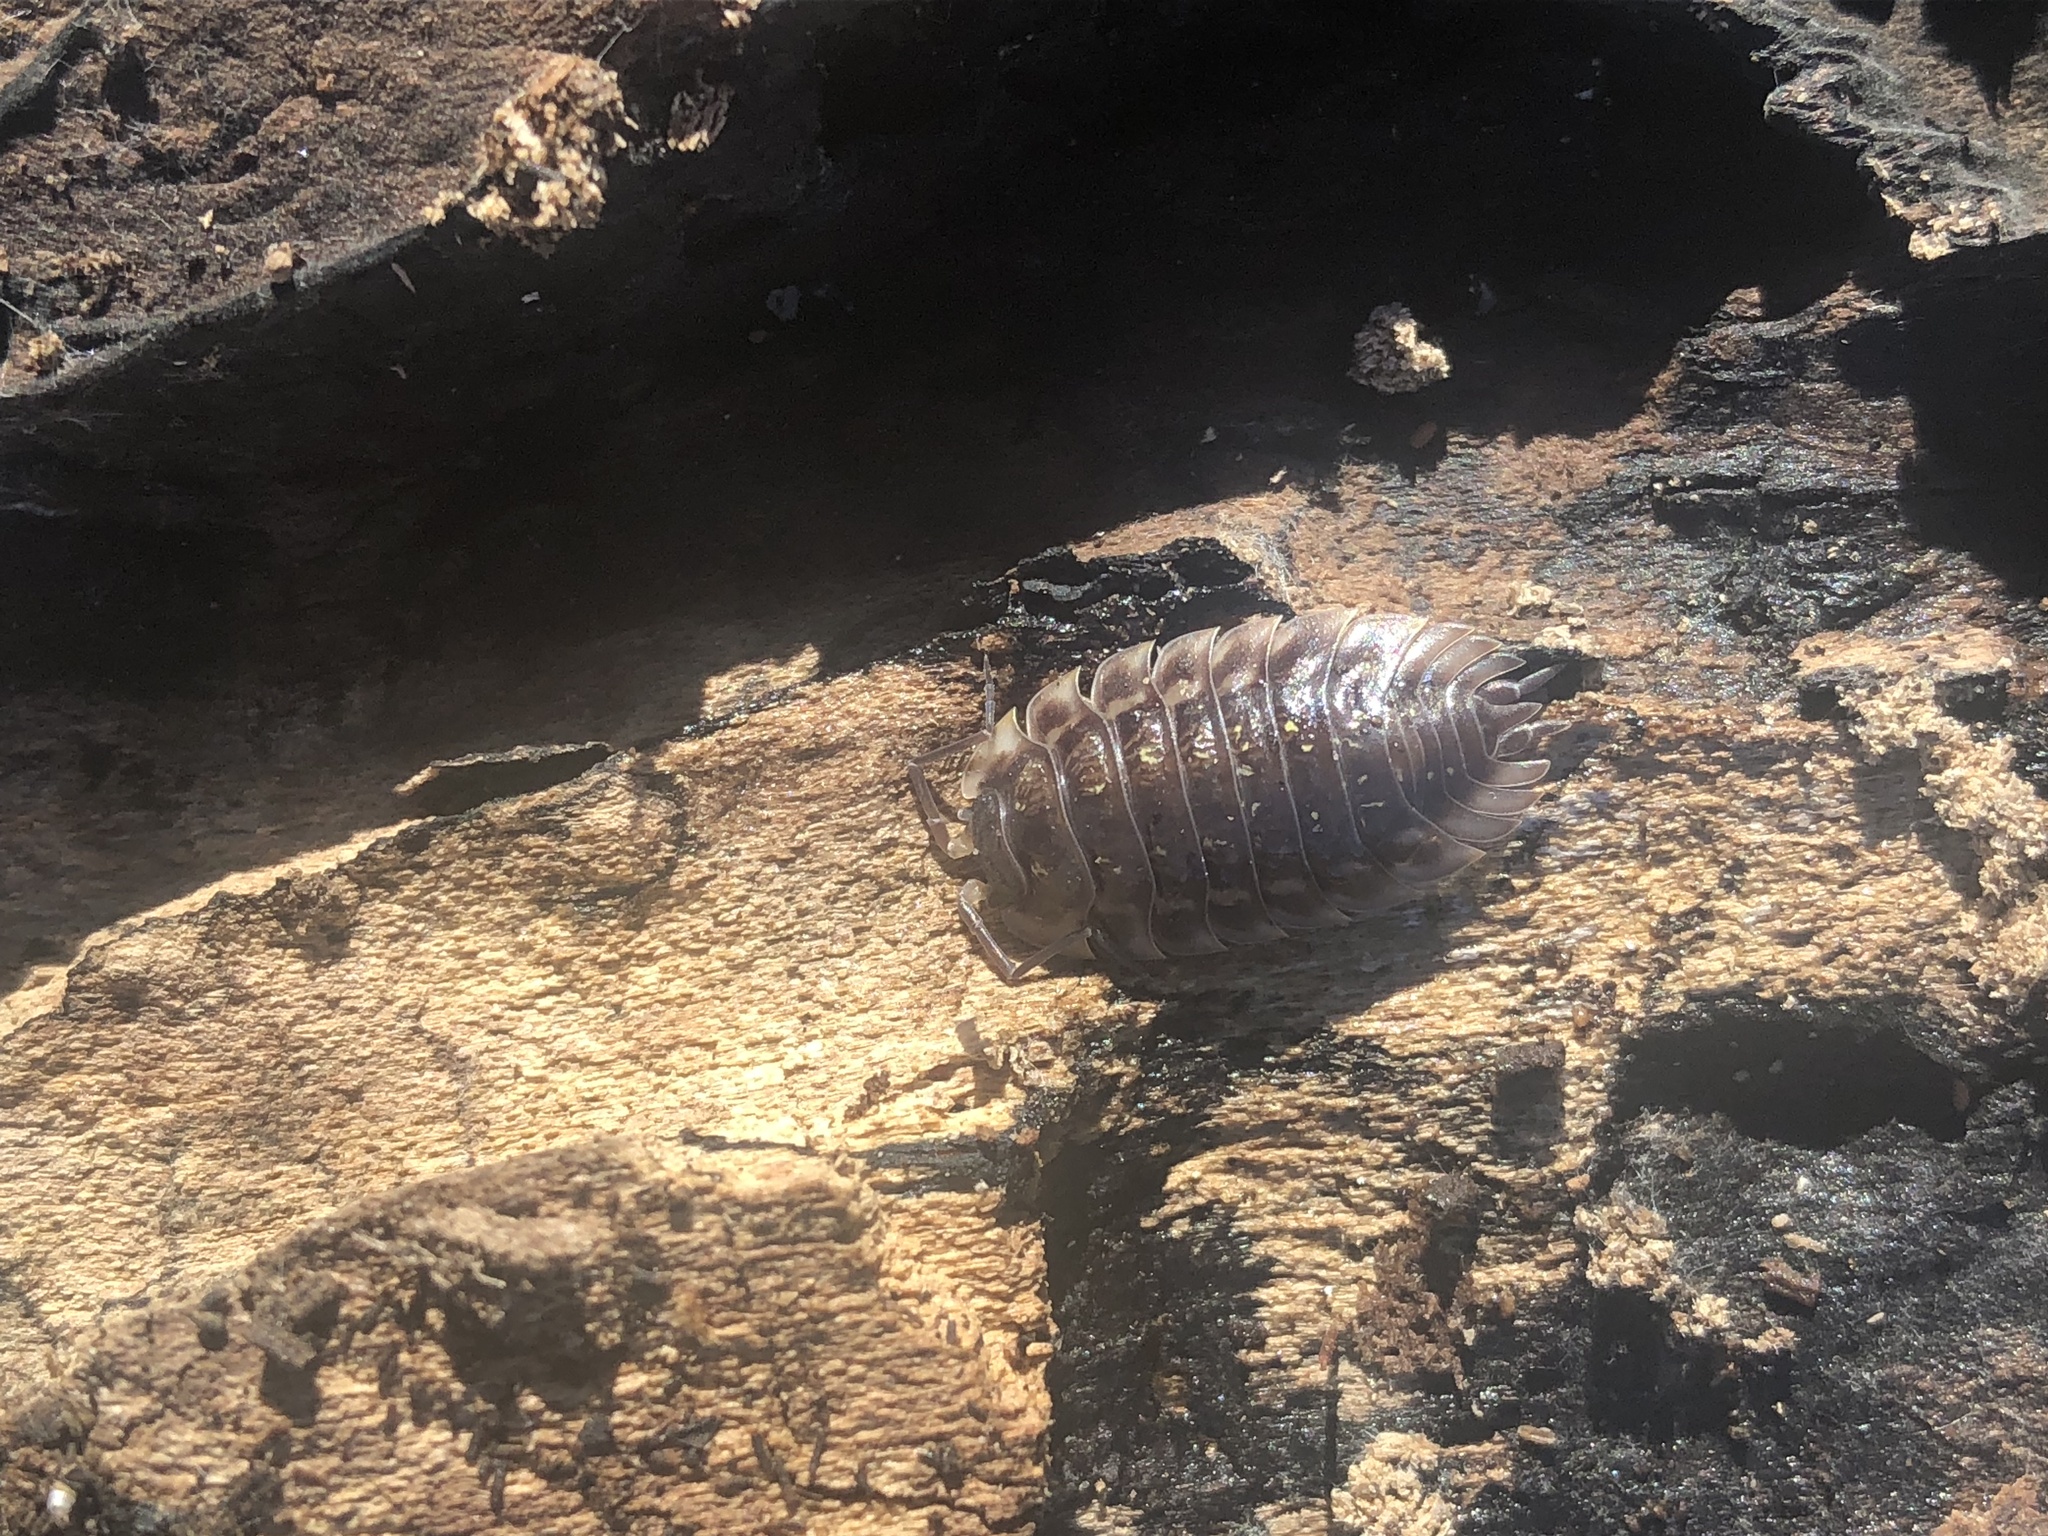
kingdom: Animalia
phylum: Arthropoda
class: Malacostraca
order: Isopoda
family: Oniscidae
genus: Oniscus
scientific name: Oniscus asellus
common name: Common shiny woodlouse
